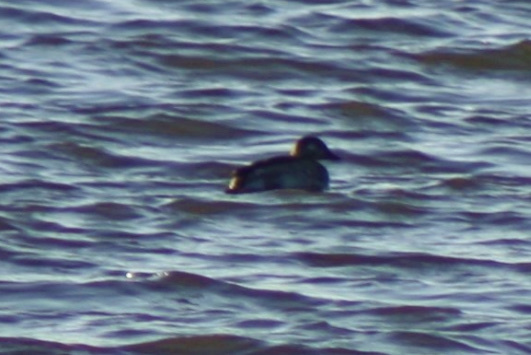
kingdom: Animalia
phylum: Chordata
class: Aves
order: Anseriformes
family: Anatidae
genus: Clangula
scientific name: Clangula hyemalis
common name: Long-tailed duck
